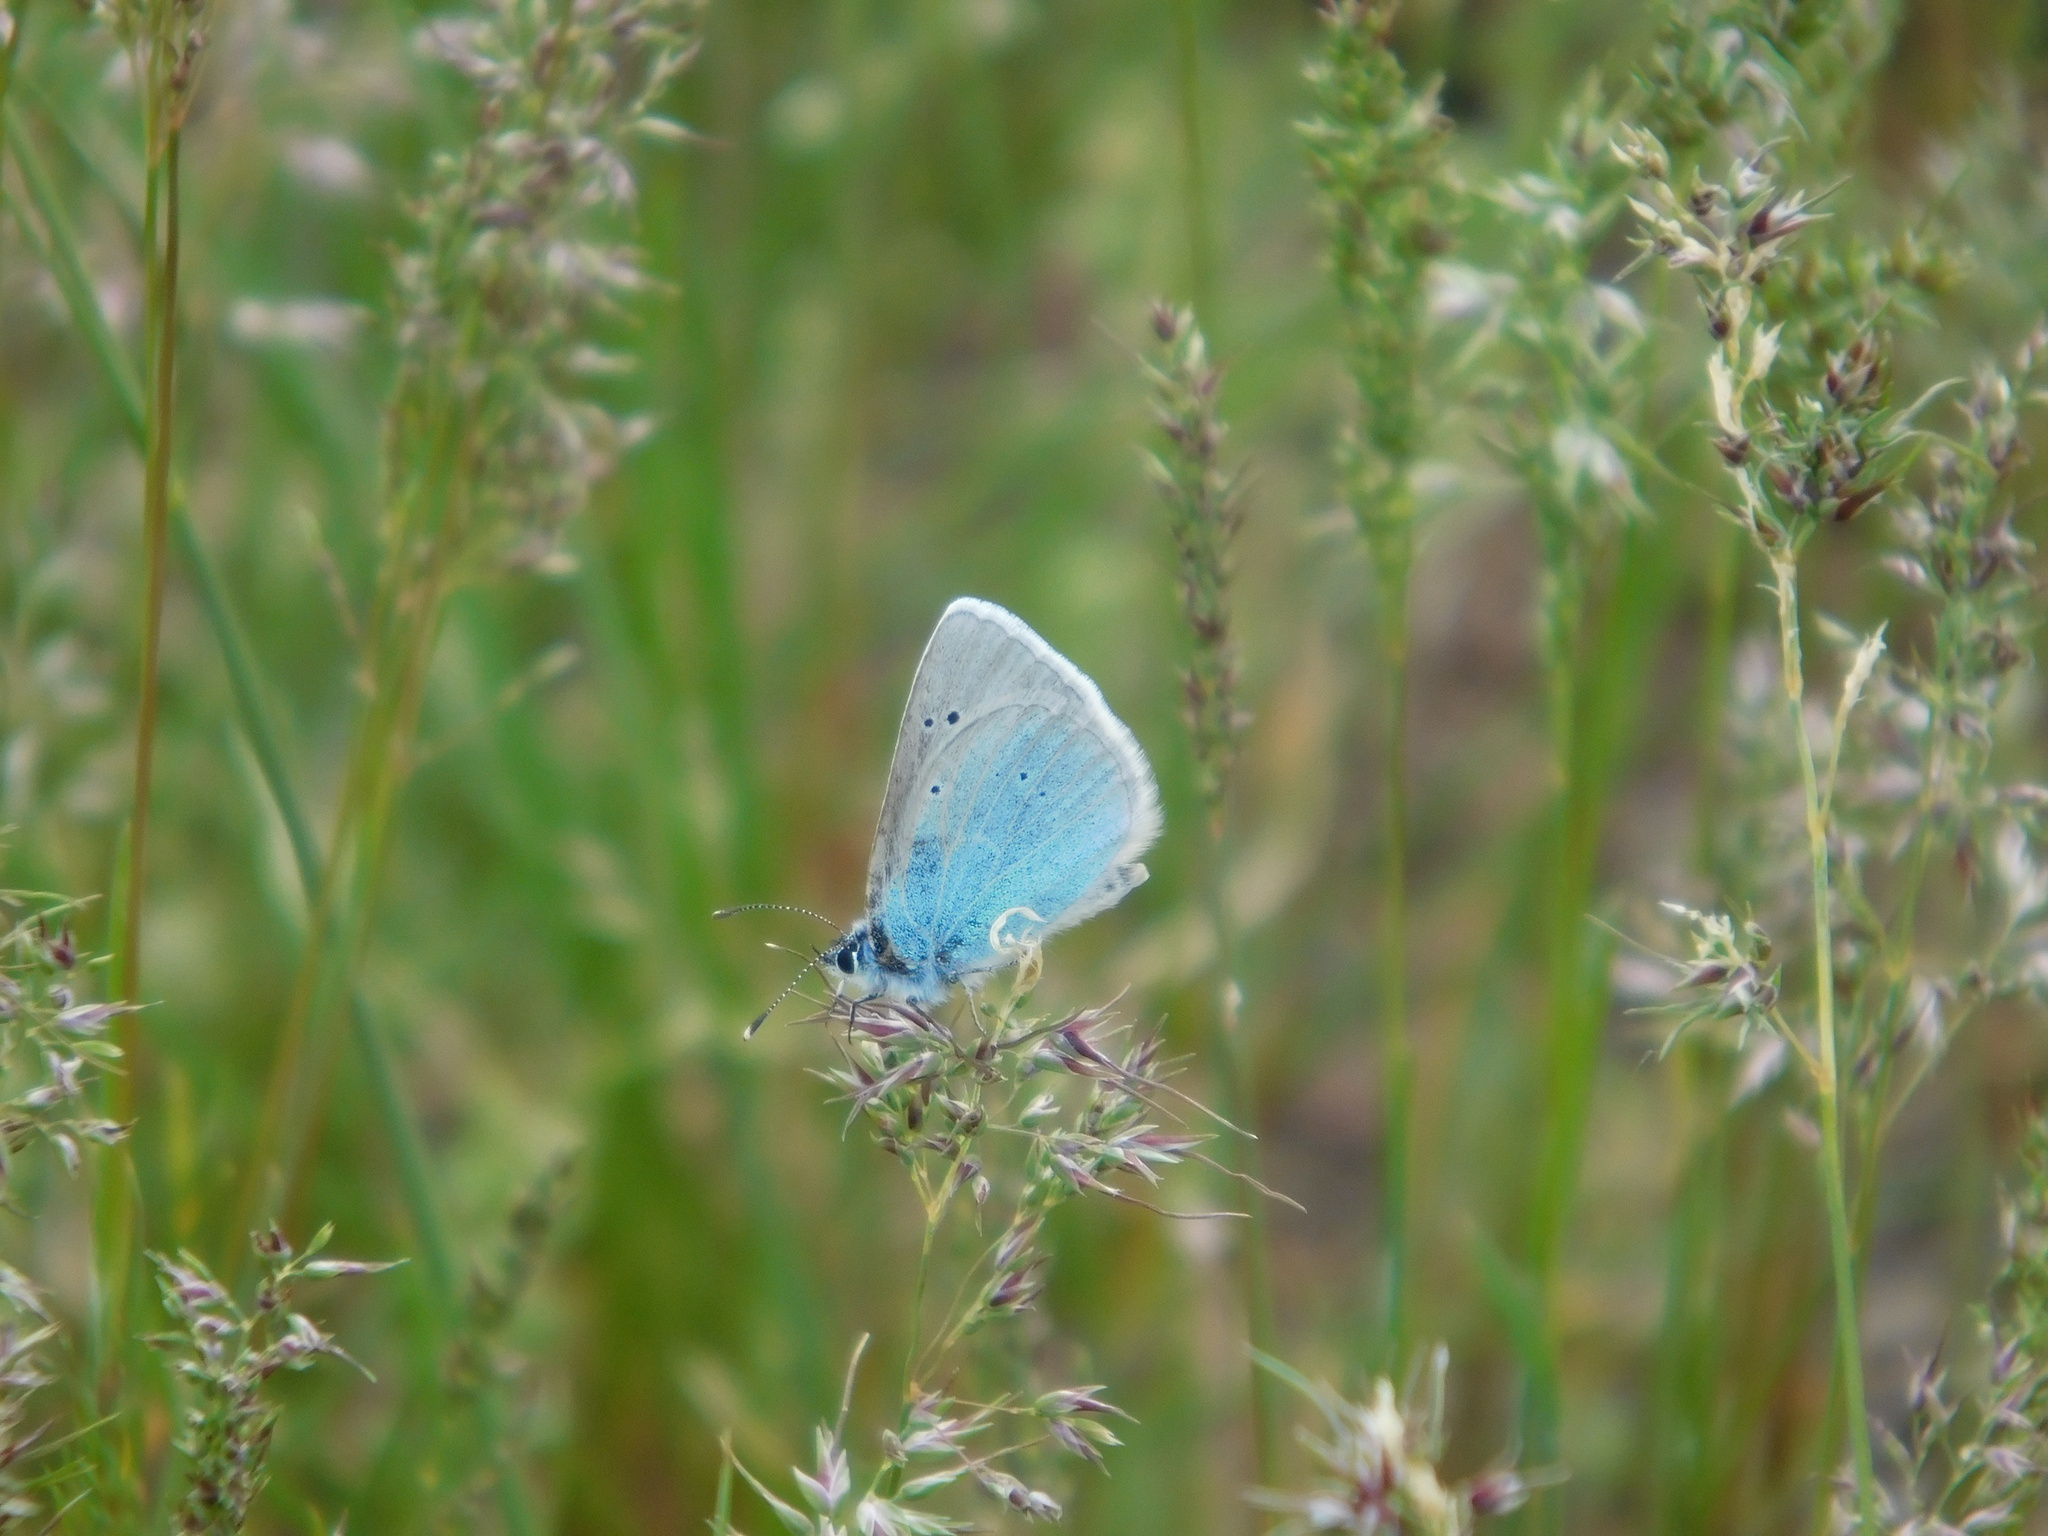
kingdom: Animalia
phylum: Arthropoda
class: Insecta
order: Lepidoptera
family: Lycaenidae
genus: Glaucopsyche
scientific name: Glaucopsyche alexis
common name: Green-underside blue
